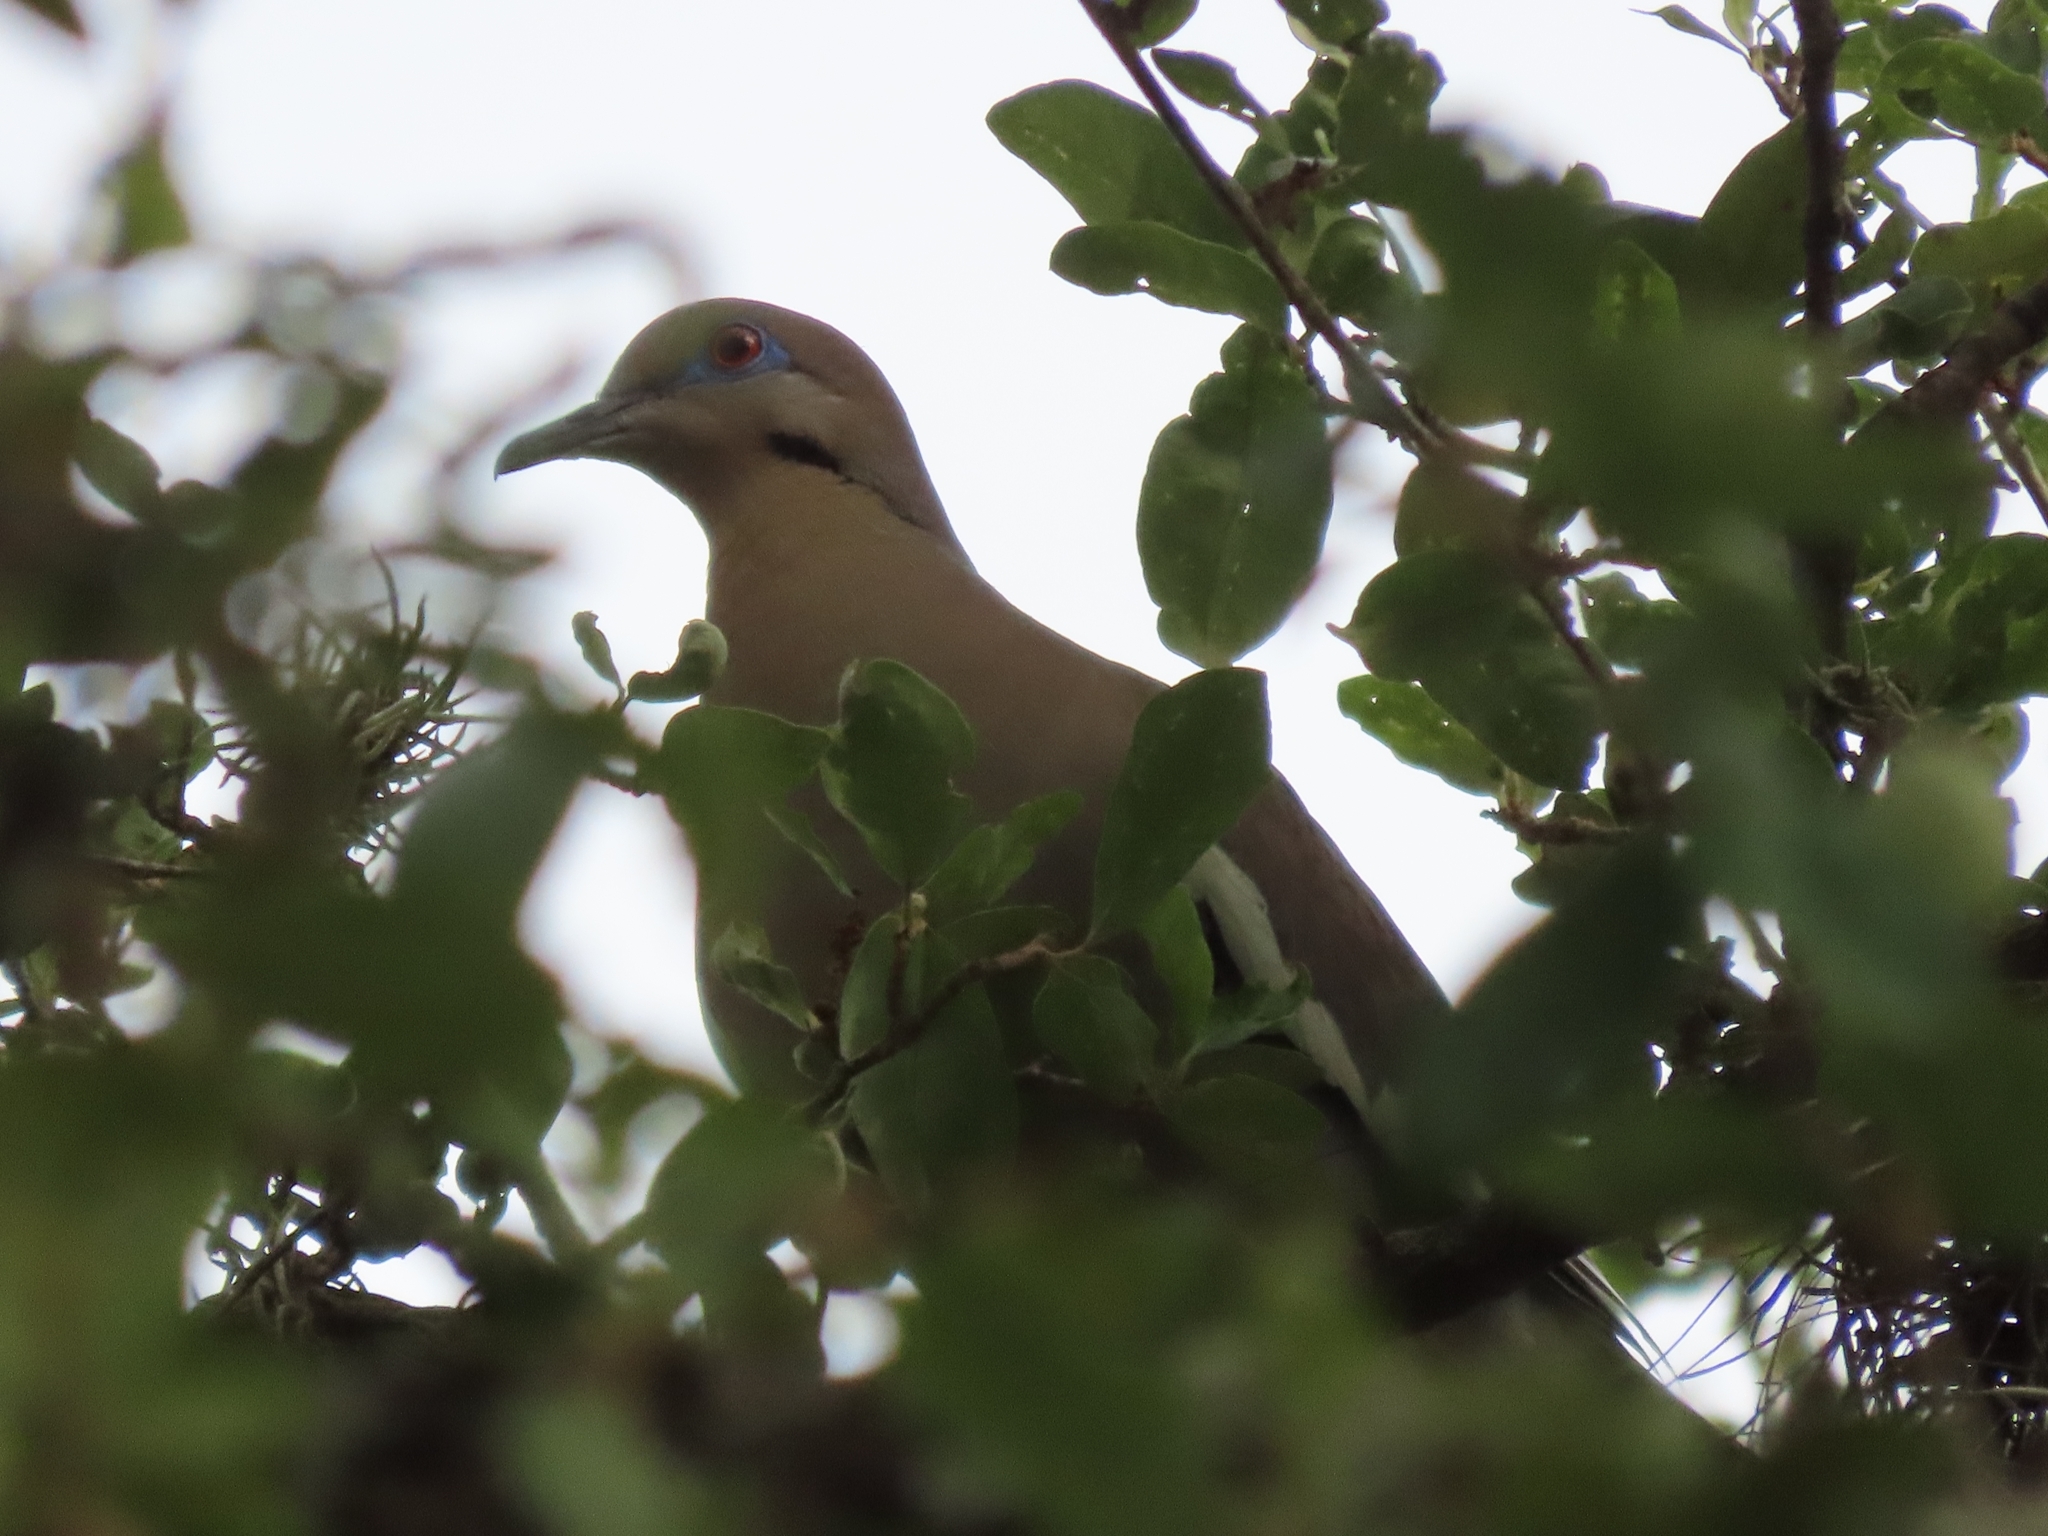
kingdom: Animalia
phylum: Chordata
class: Aves
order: Columbiformes
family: Columbidae
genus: Zenaida
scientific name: Zenaida asiatica
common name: White-winged dove
